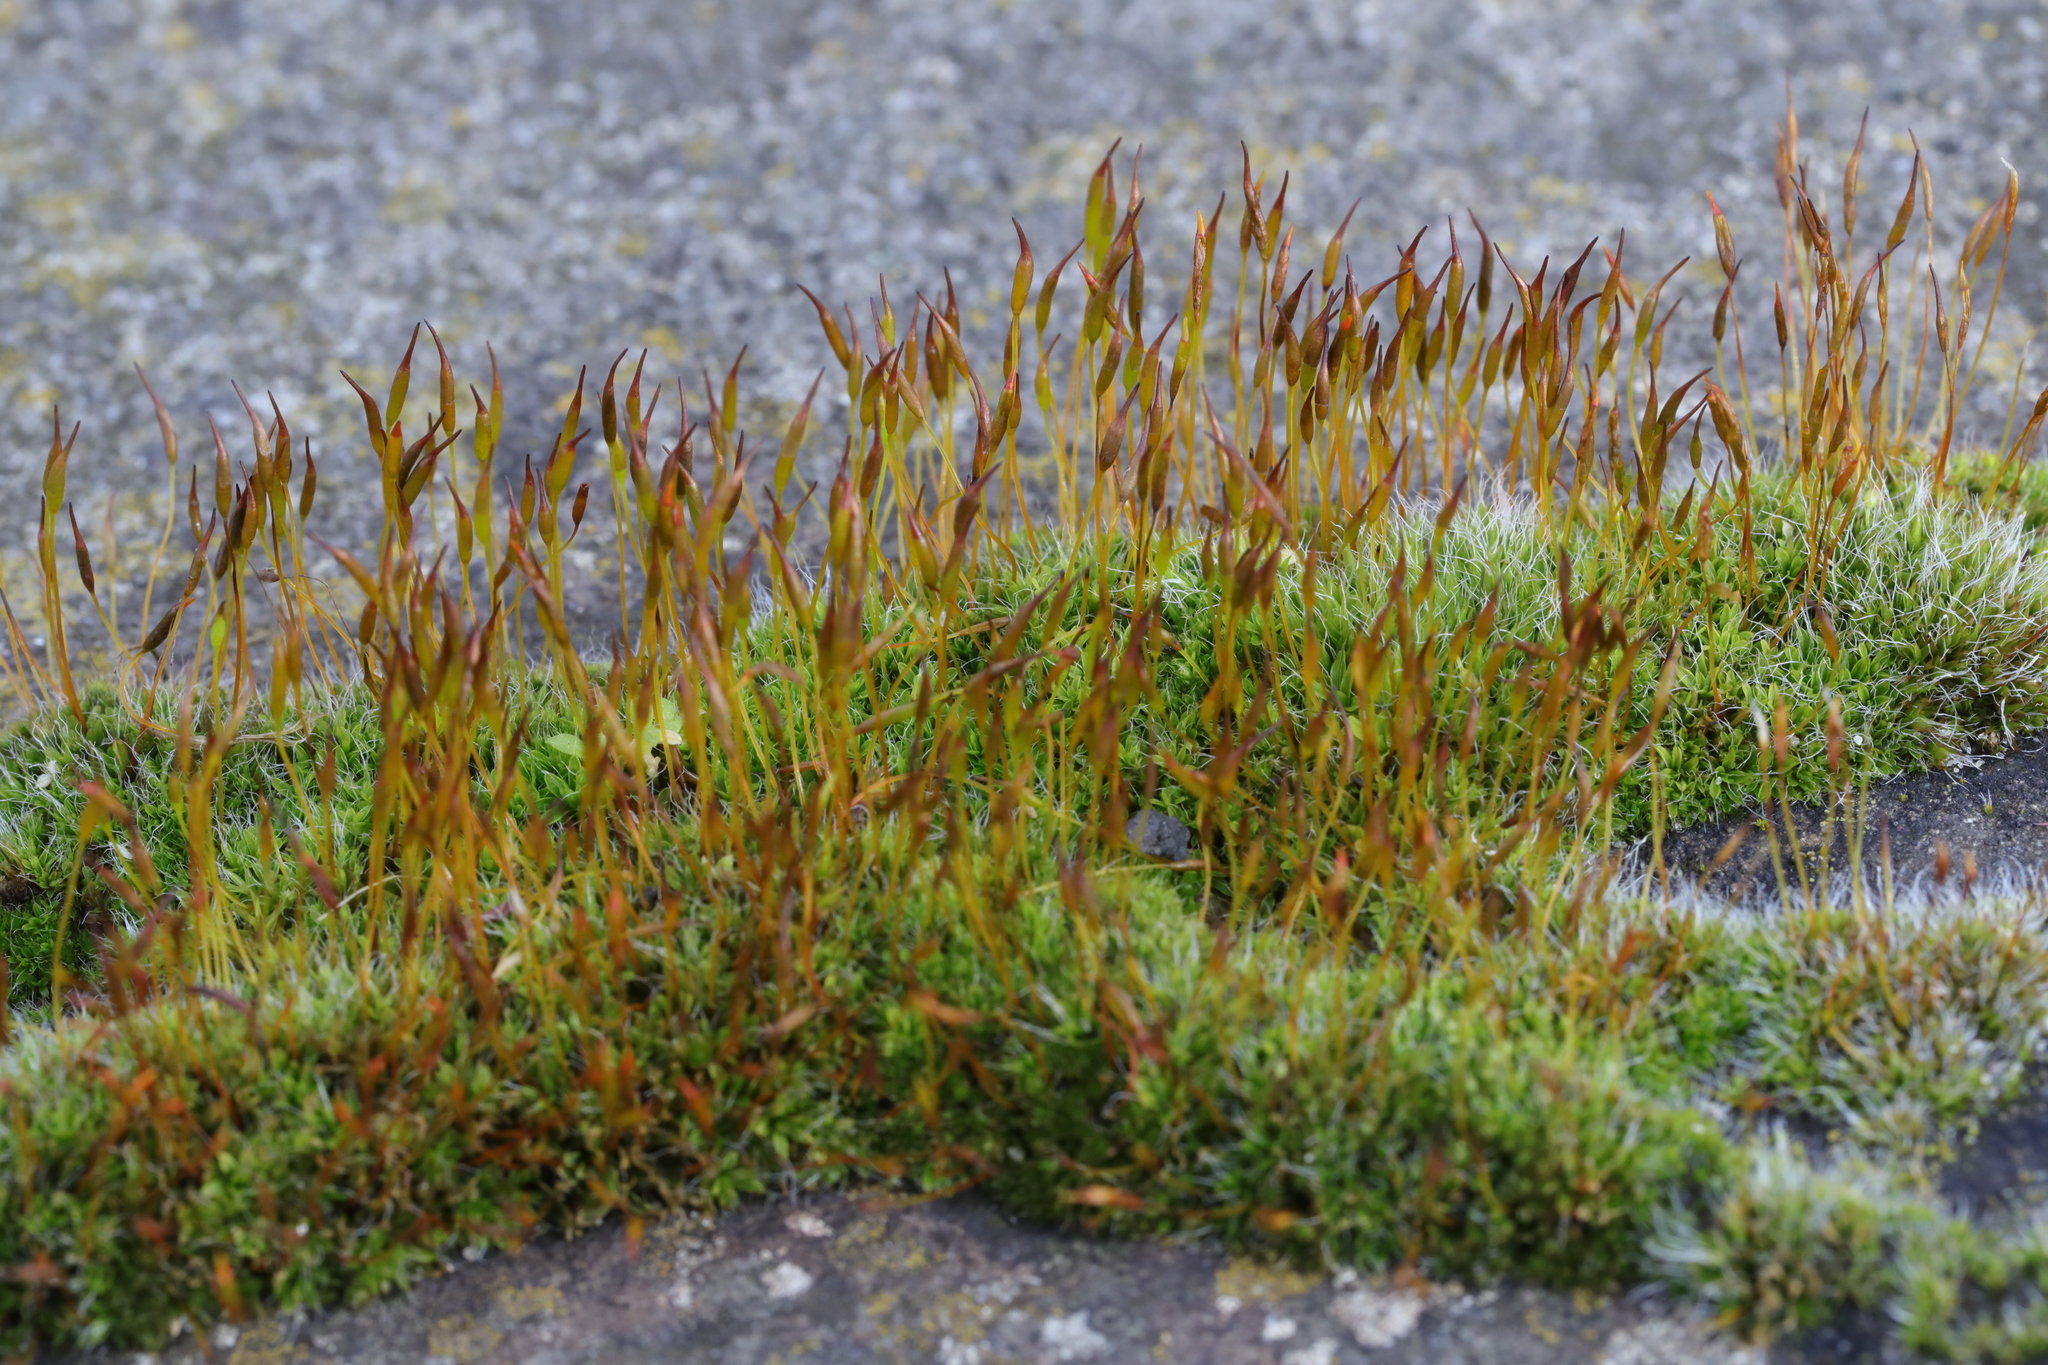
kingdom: Plantae
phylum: Bryophyta
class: Bryopsida
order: Pottiales
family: Pottiaceae
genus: Tortula
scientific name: Tortula muralis
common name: Wall screw-moss
